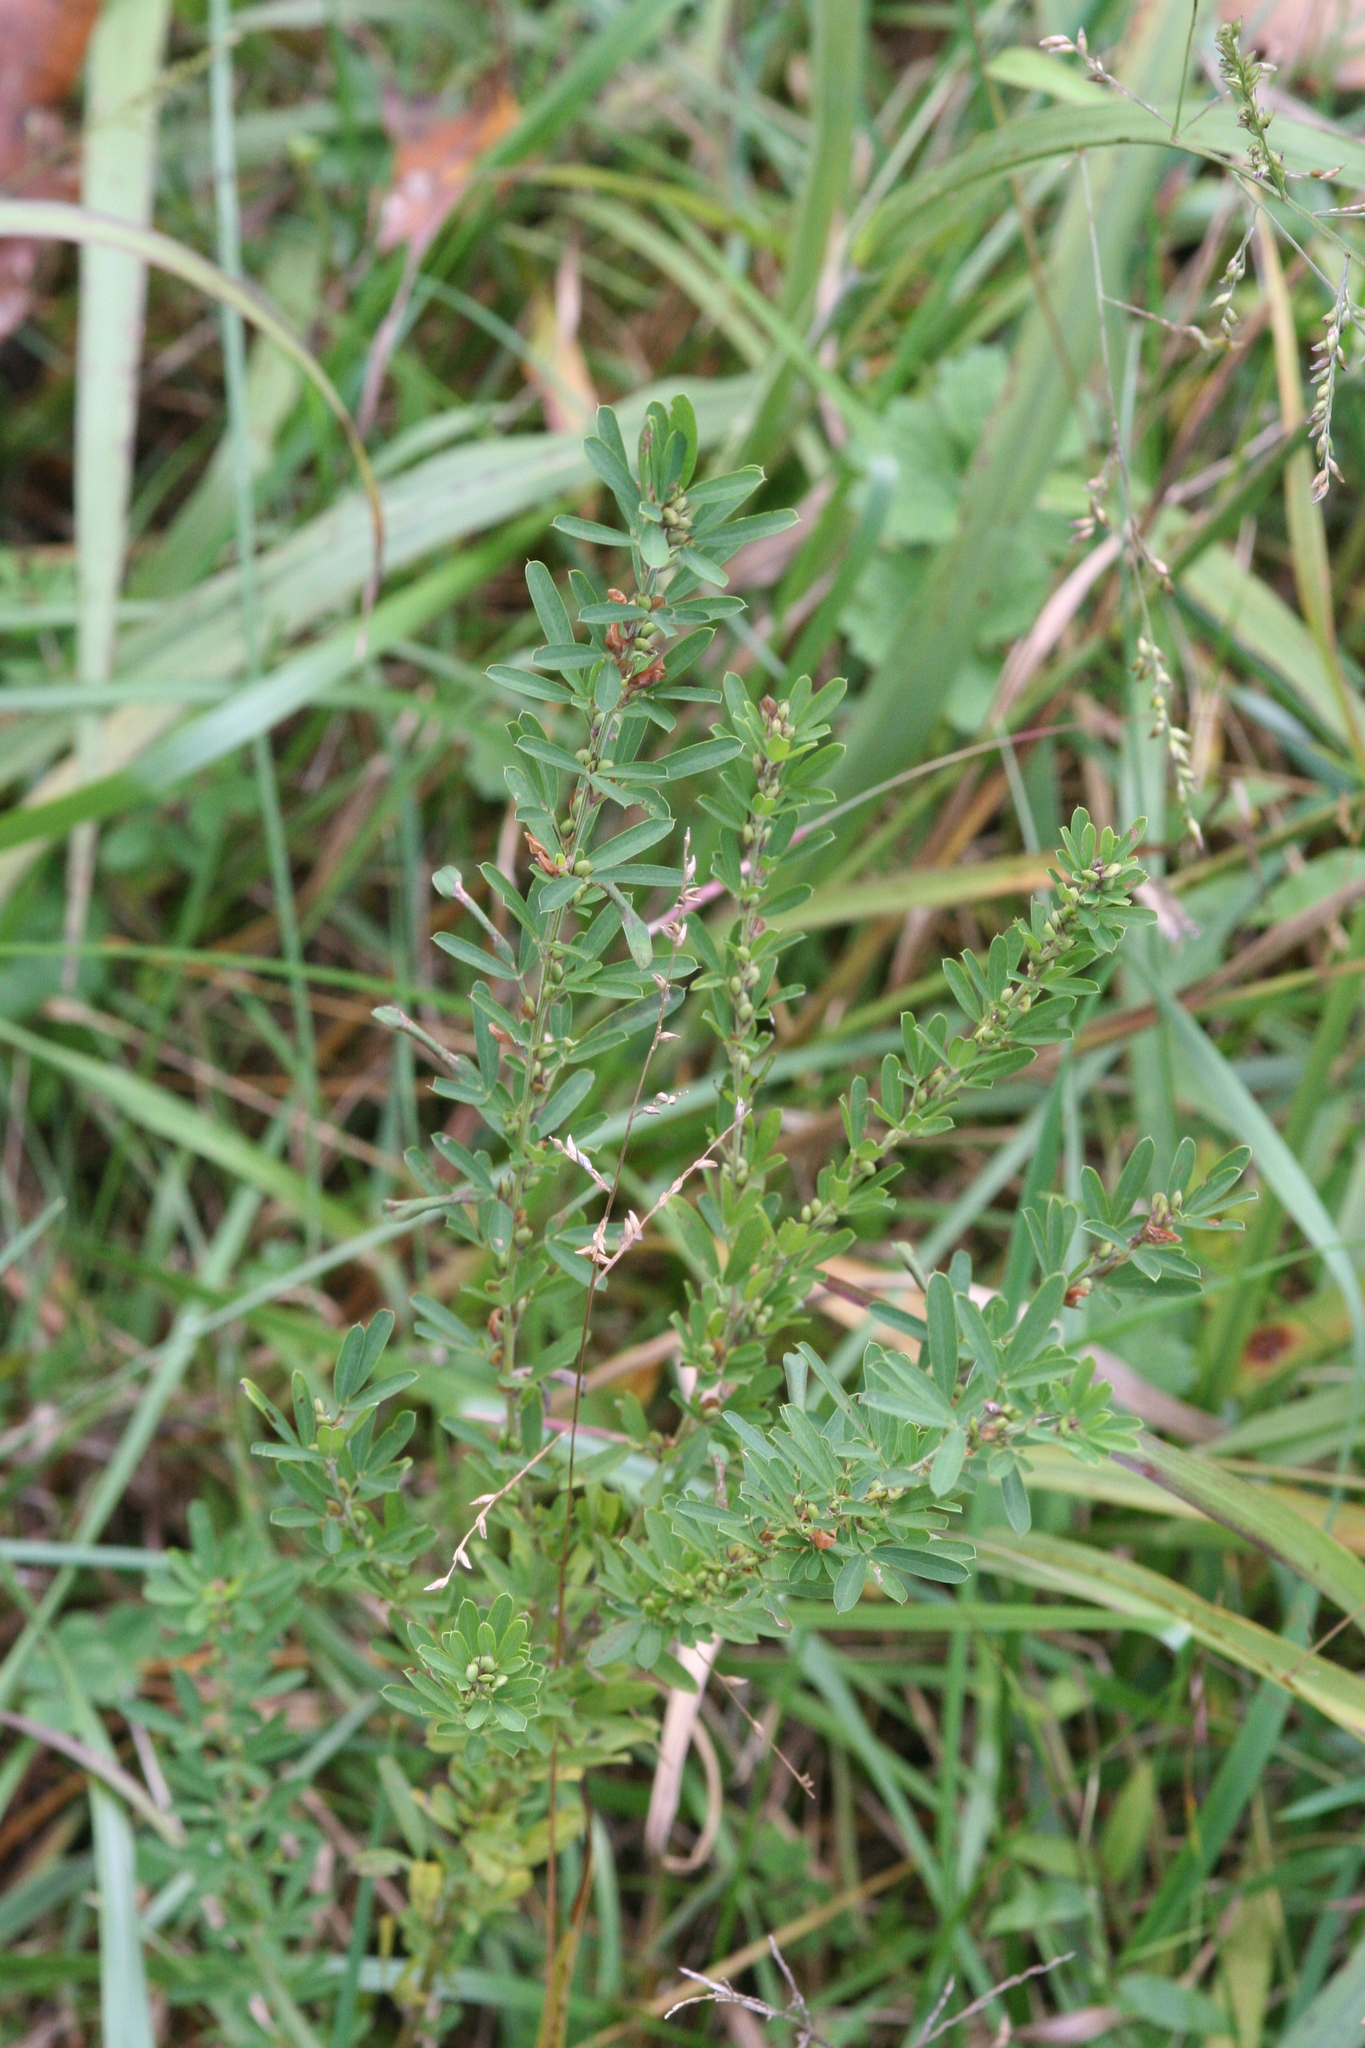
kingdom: Plantae
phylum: Tracheophyta
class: Magnoliopsida
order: Fabales
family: Fabaceae
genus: Lespedeza
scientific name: Lespedeza cuneata
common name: Chinese bush-clover
